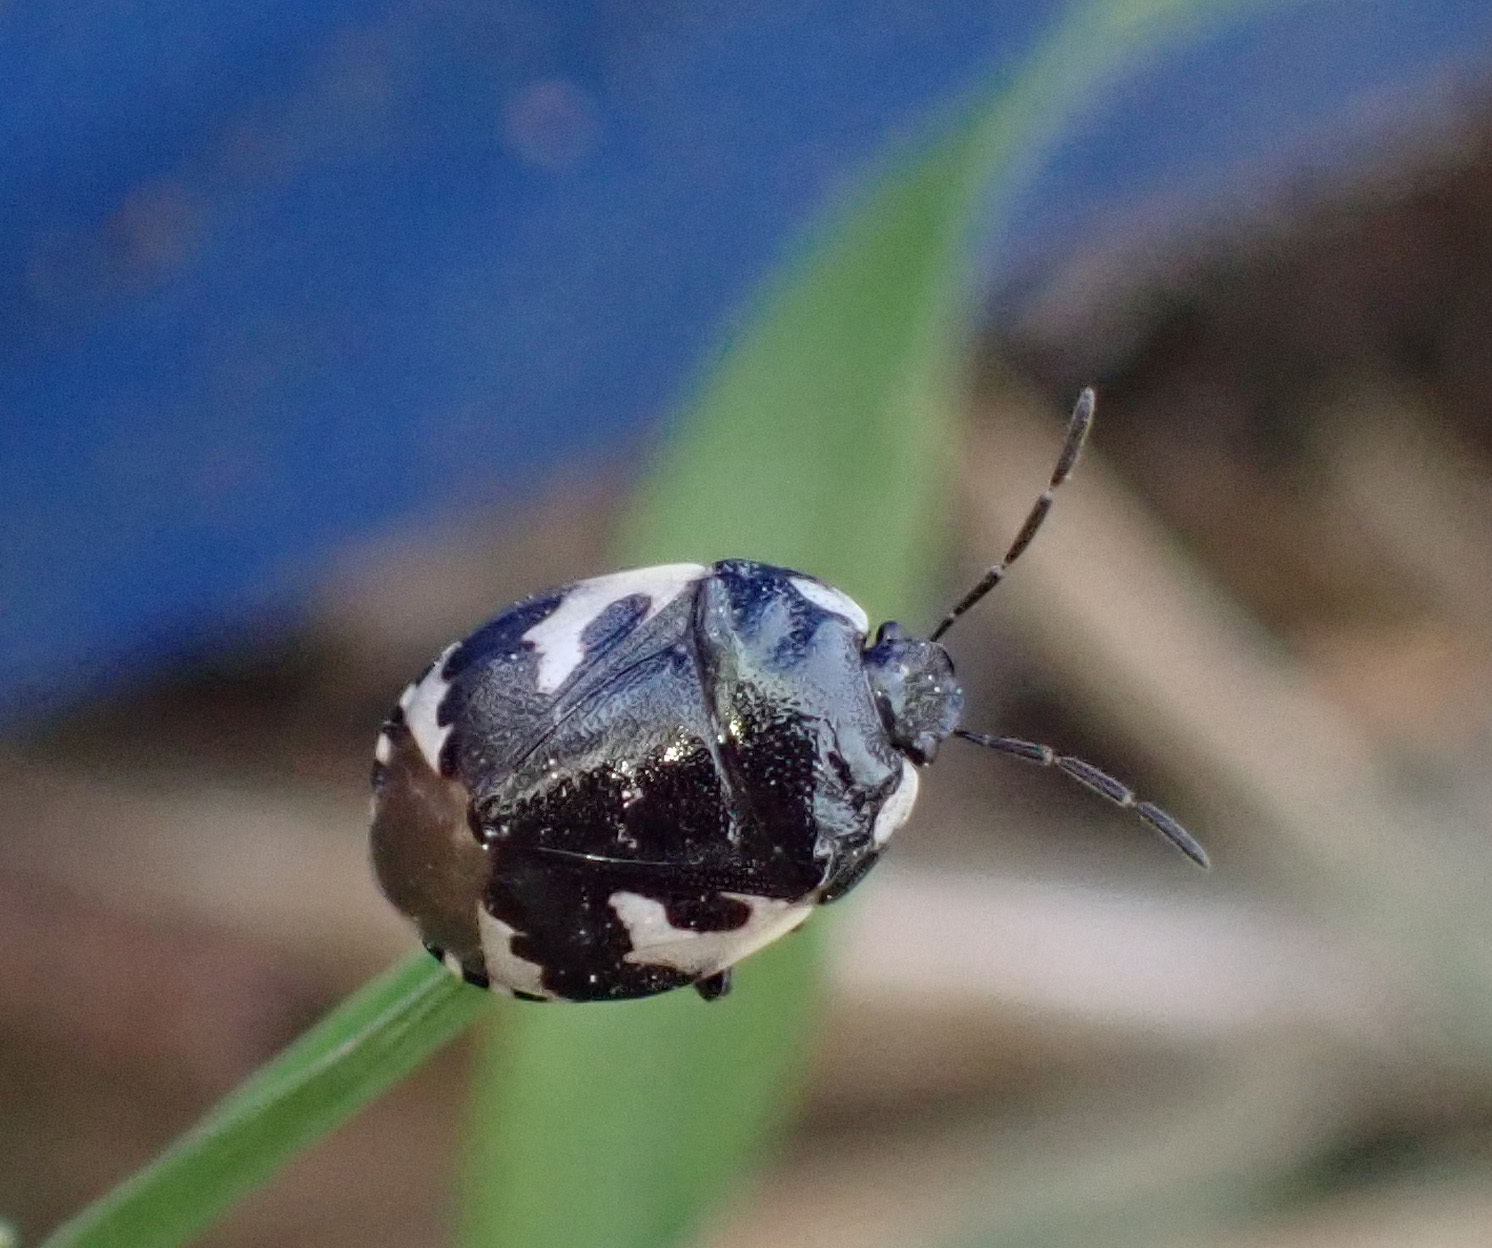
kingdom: Animalia
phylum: Arthropoda
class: Insecta
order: Hemiptera
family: Cydnidae
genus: Tritomegas
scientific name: Tritomegas bicolor
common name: Pied shieldbug
